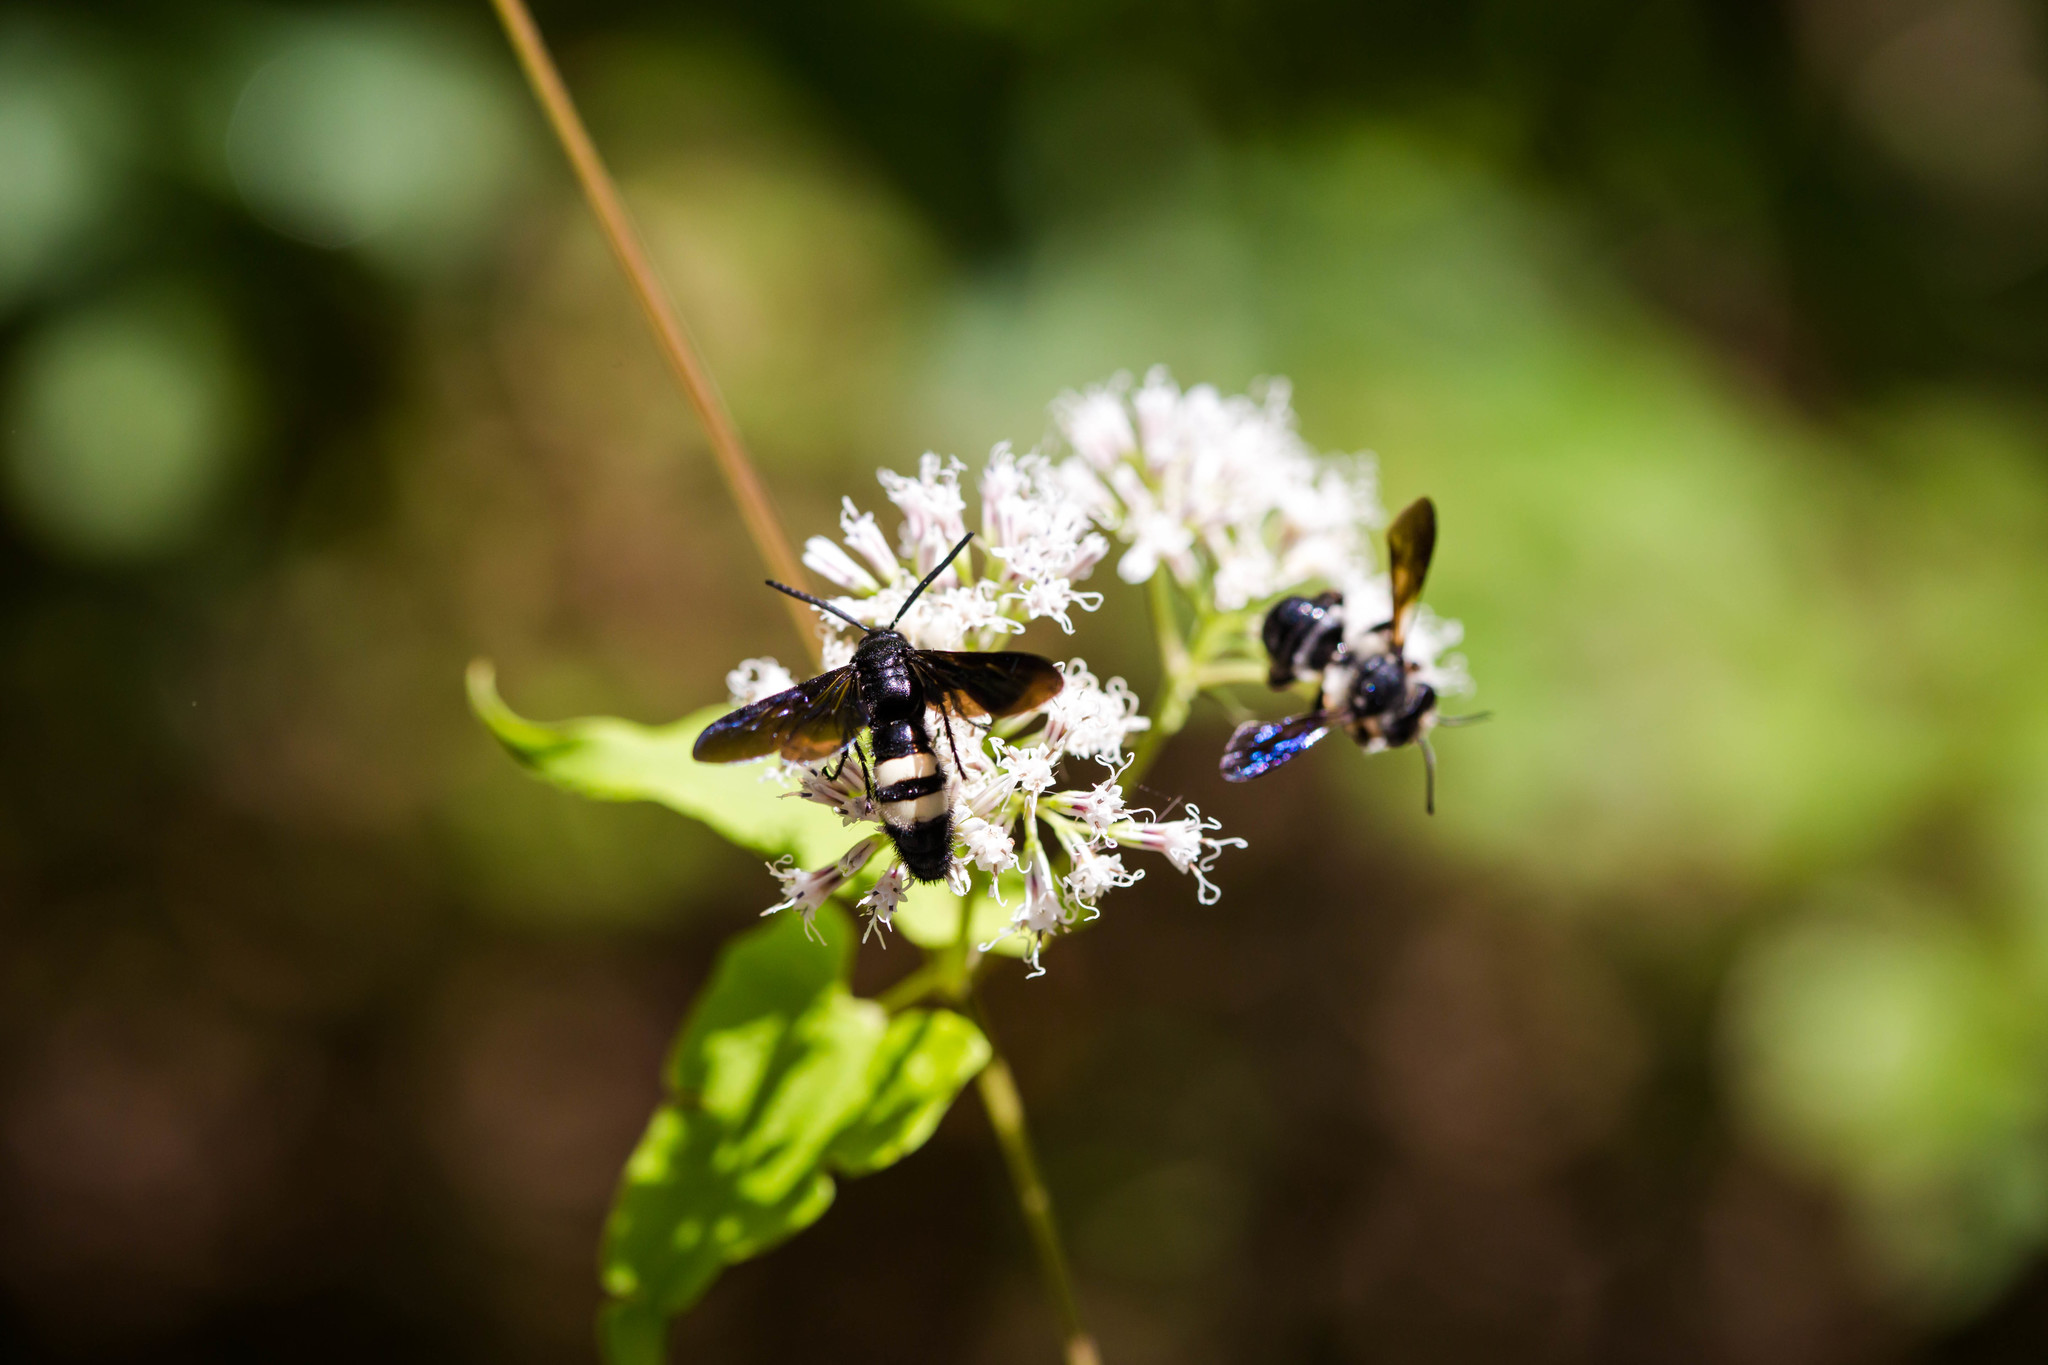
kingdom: Animalia
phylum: Arthropoda
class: Insecta
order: Hymenoptera
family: Scoliidae
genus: Scolia
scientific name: Scolia bicincta
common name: Double-banded scoliid wasp
